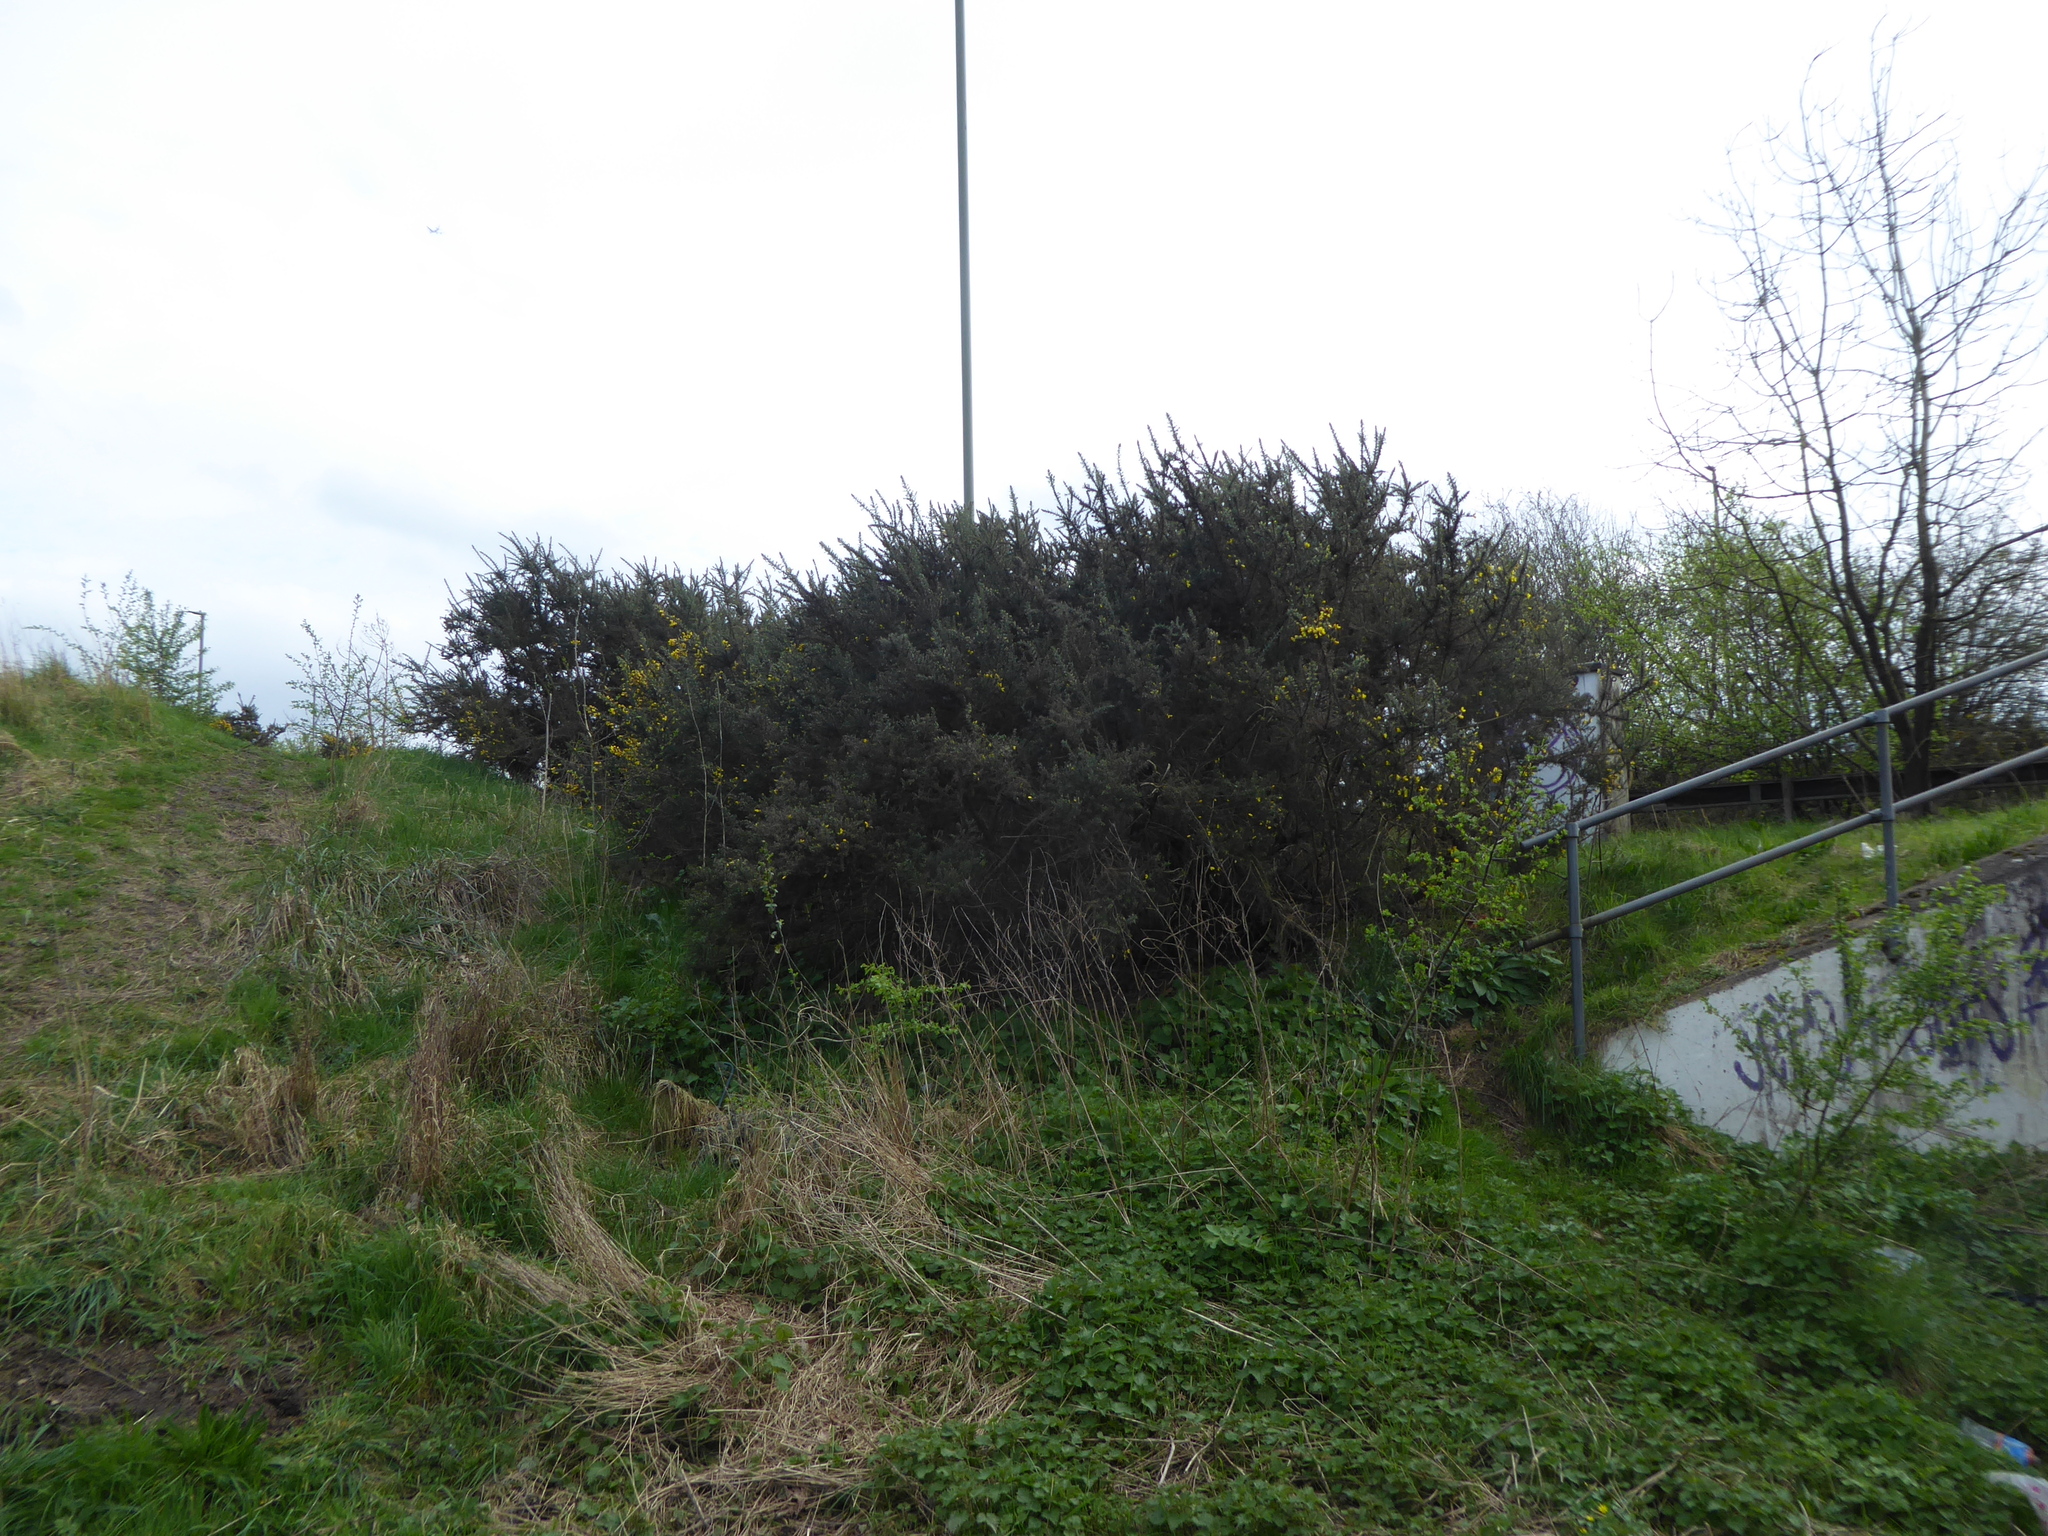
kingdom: Plantae
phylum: Tracheophyta
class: Magnoliopsida
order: Fabales
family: Fabaceae
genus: Ulex
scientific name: Ulex europaeus
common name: Common gorse
